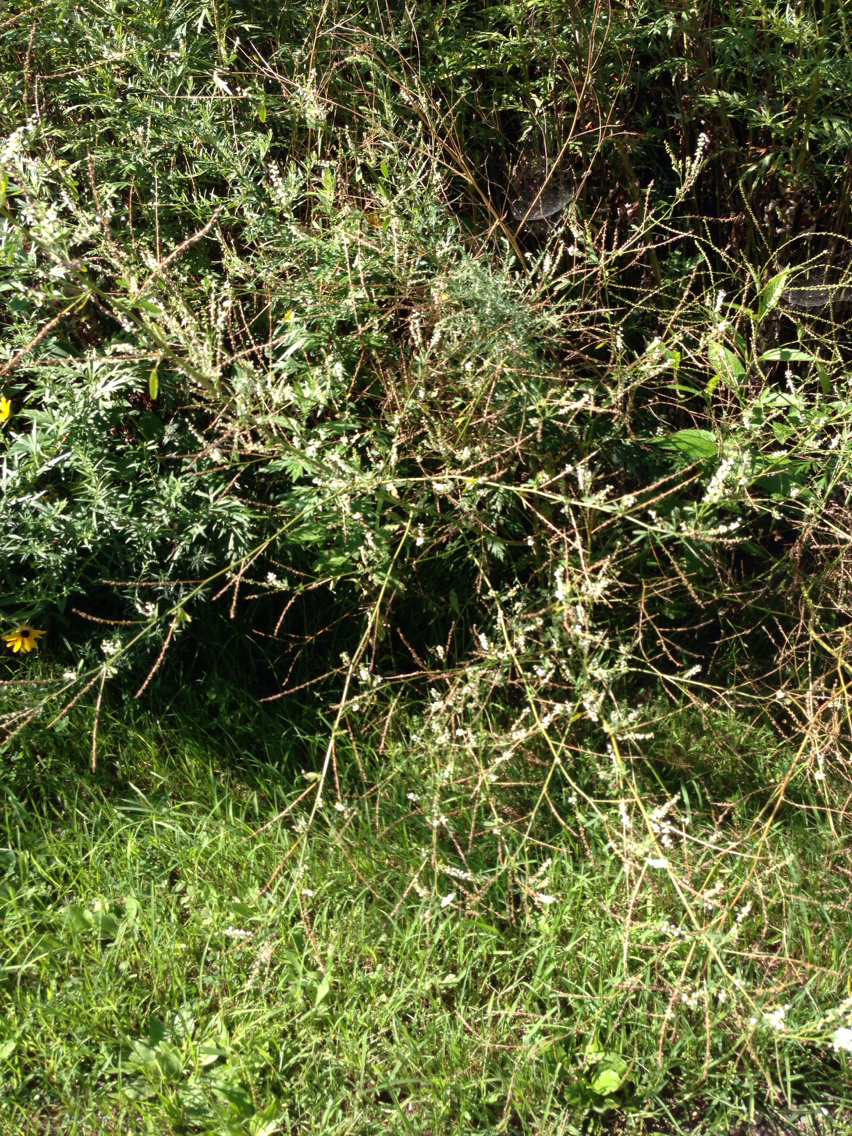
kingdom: Plantae
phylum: Tracheophyta
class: Magnoliopsida
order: Fabales
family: Fabaceae
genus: Melilotus
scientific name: Melilotus albus
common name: White melilot
